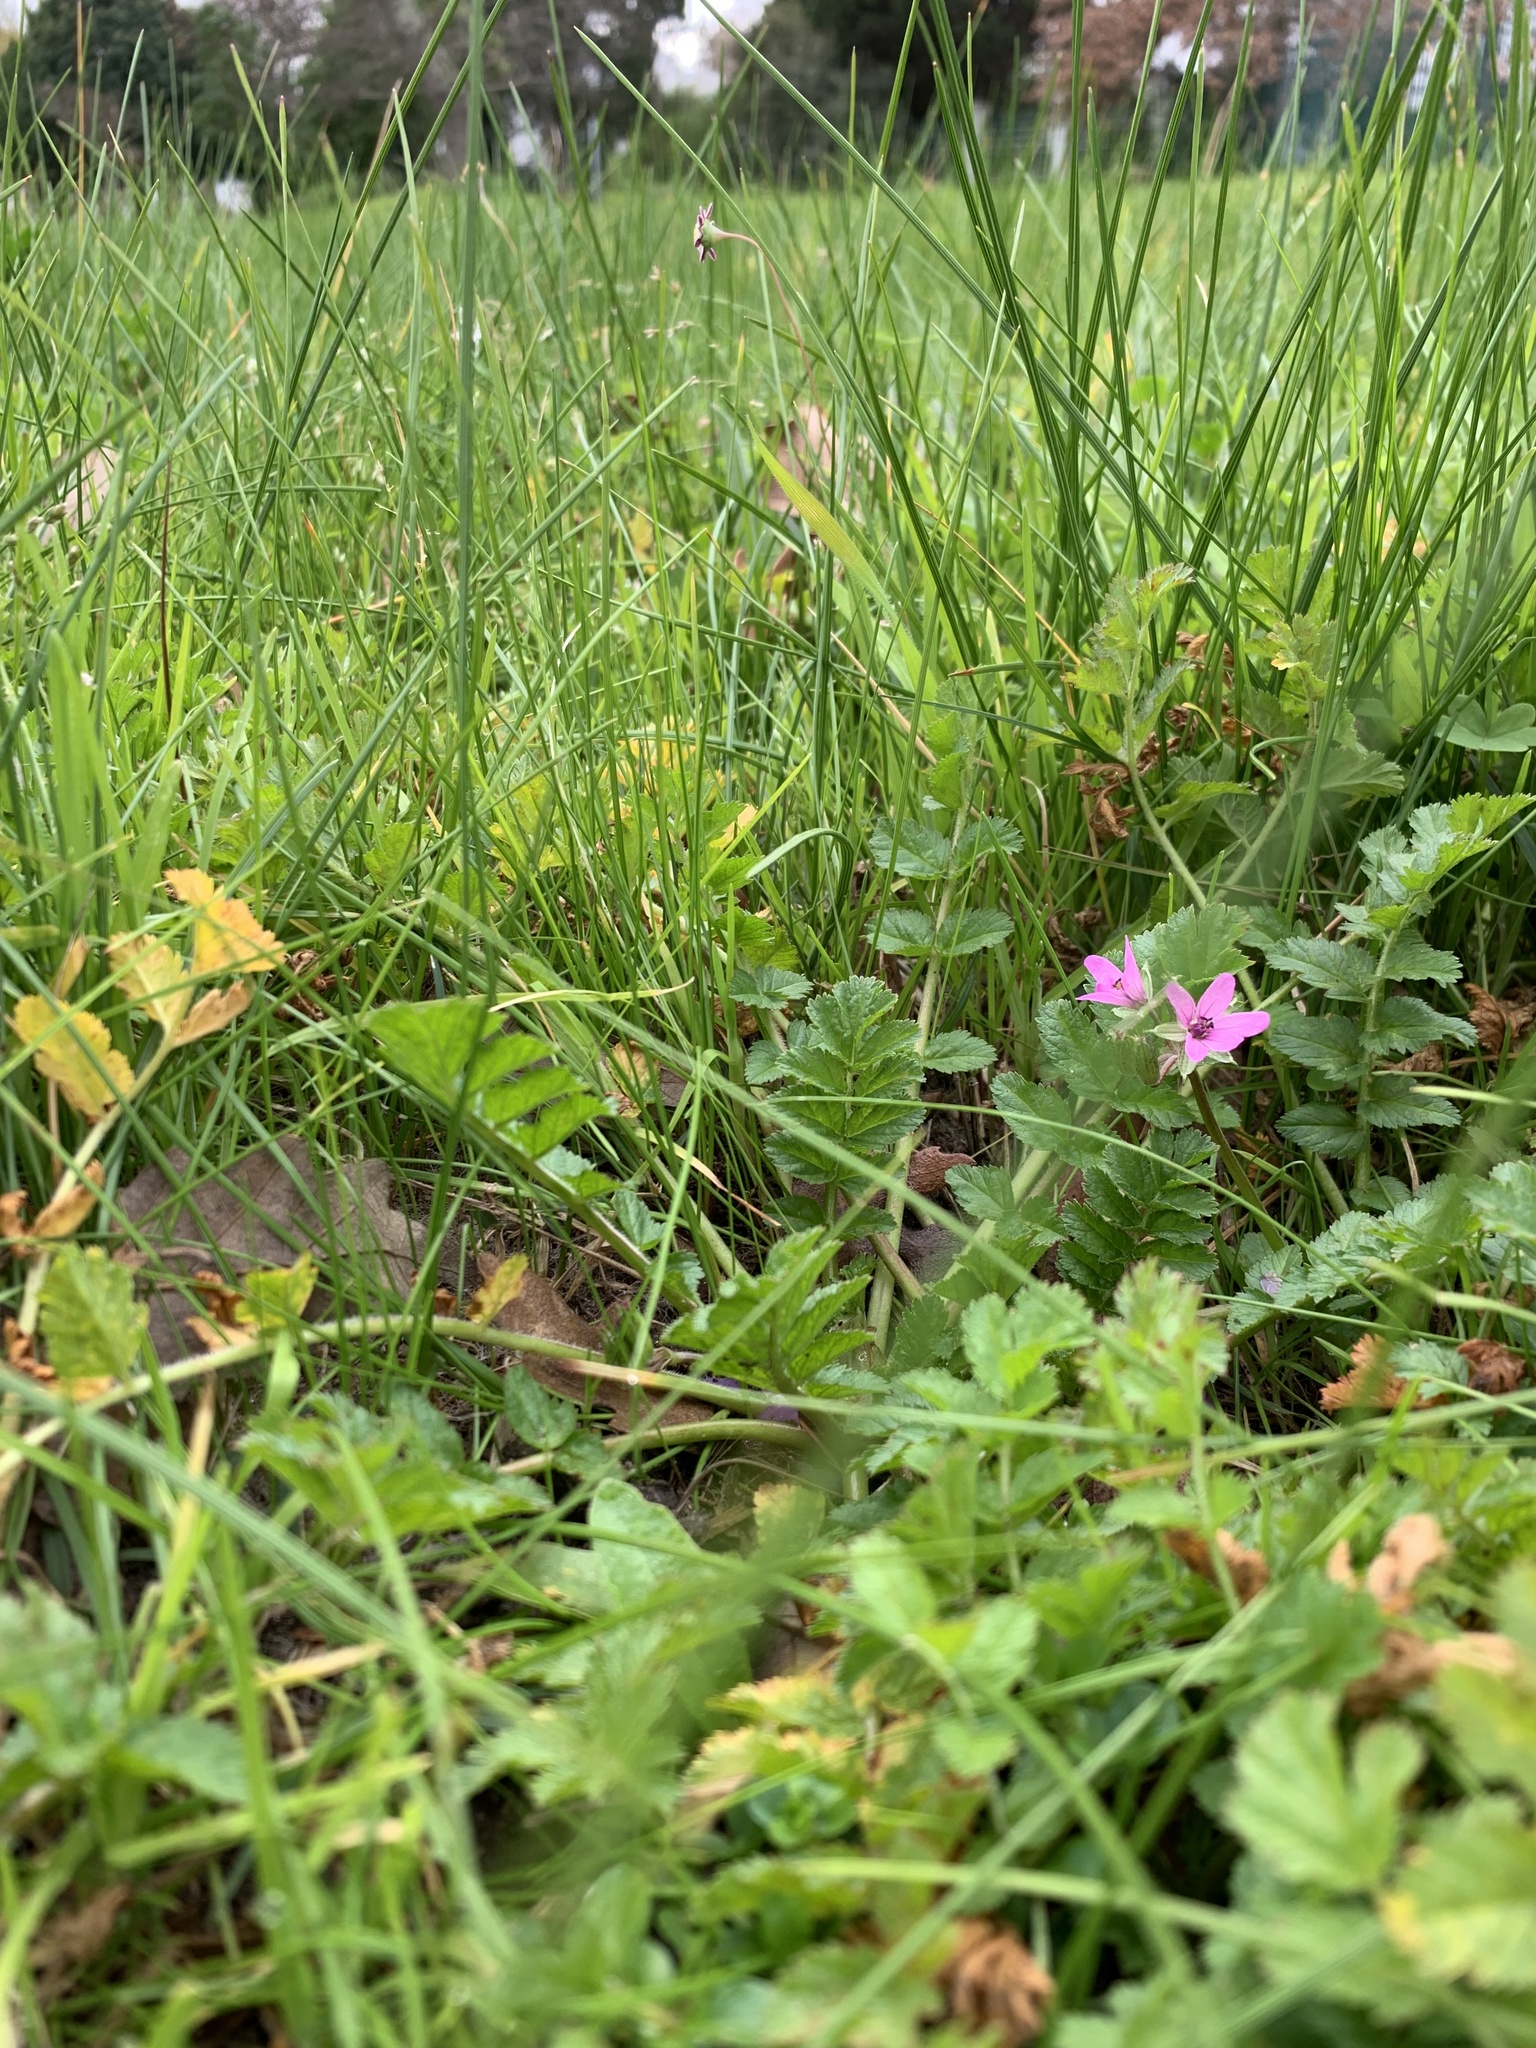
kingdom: Plantae
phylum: Tracheophyta
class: Magnoliopsida
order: Geraniales
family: Geraniaceae
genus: Erodium
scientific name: Erodium moschatum
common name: Musk stork's-bill
